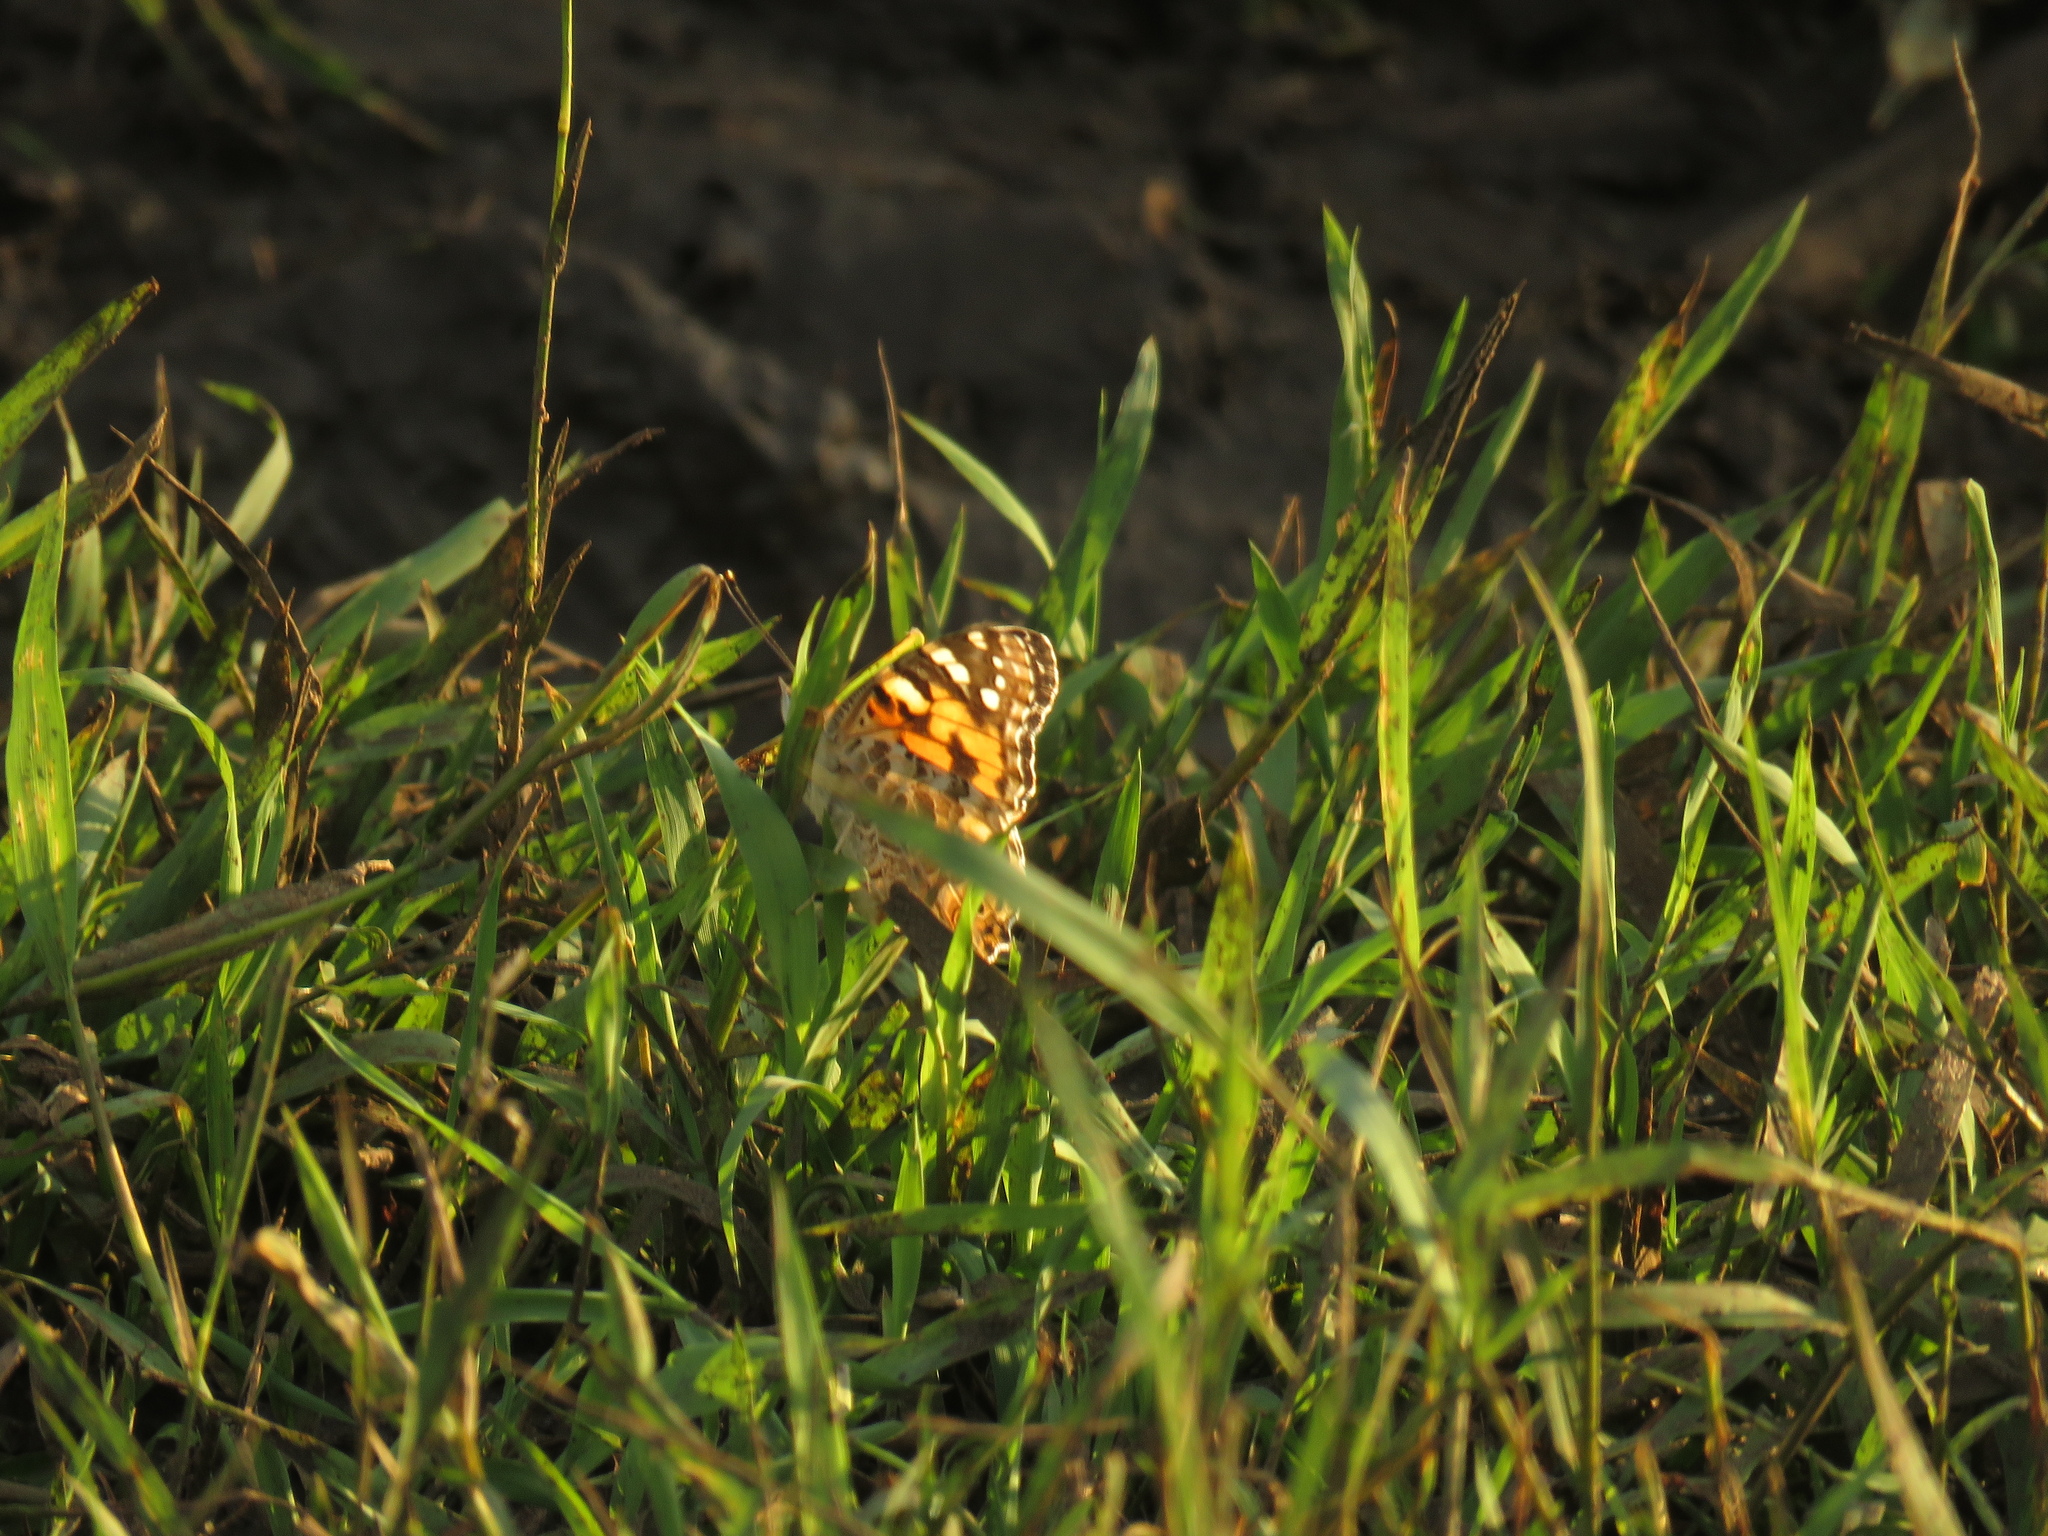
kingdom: Animalia
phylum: Arthropoda
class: Insecta
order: Lepidoptera
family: Nymphalidae
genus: Vanessa
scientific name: Vanessa cardui
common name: Painted lady
